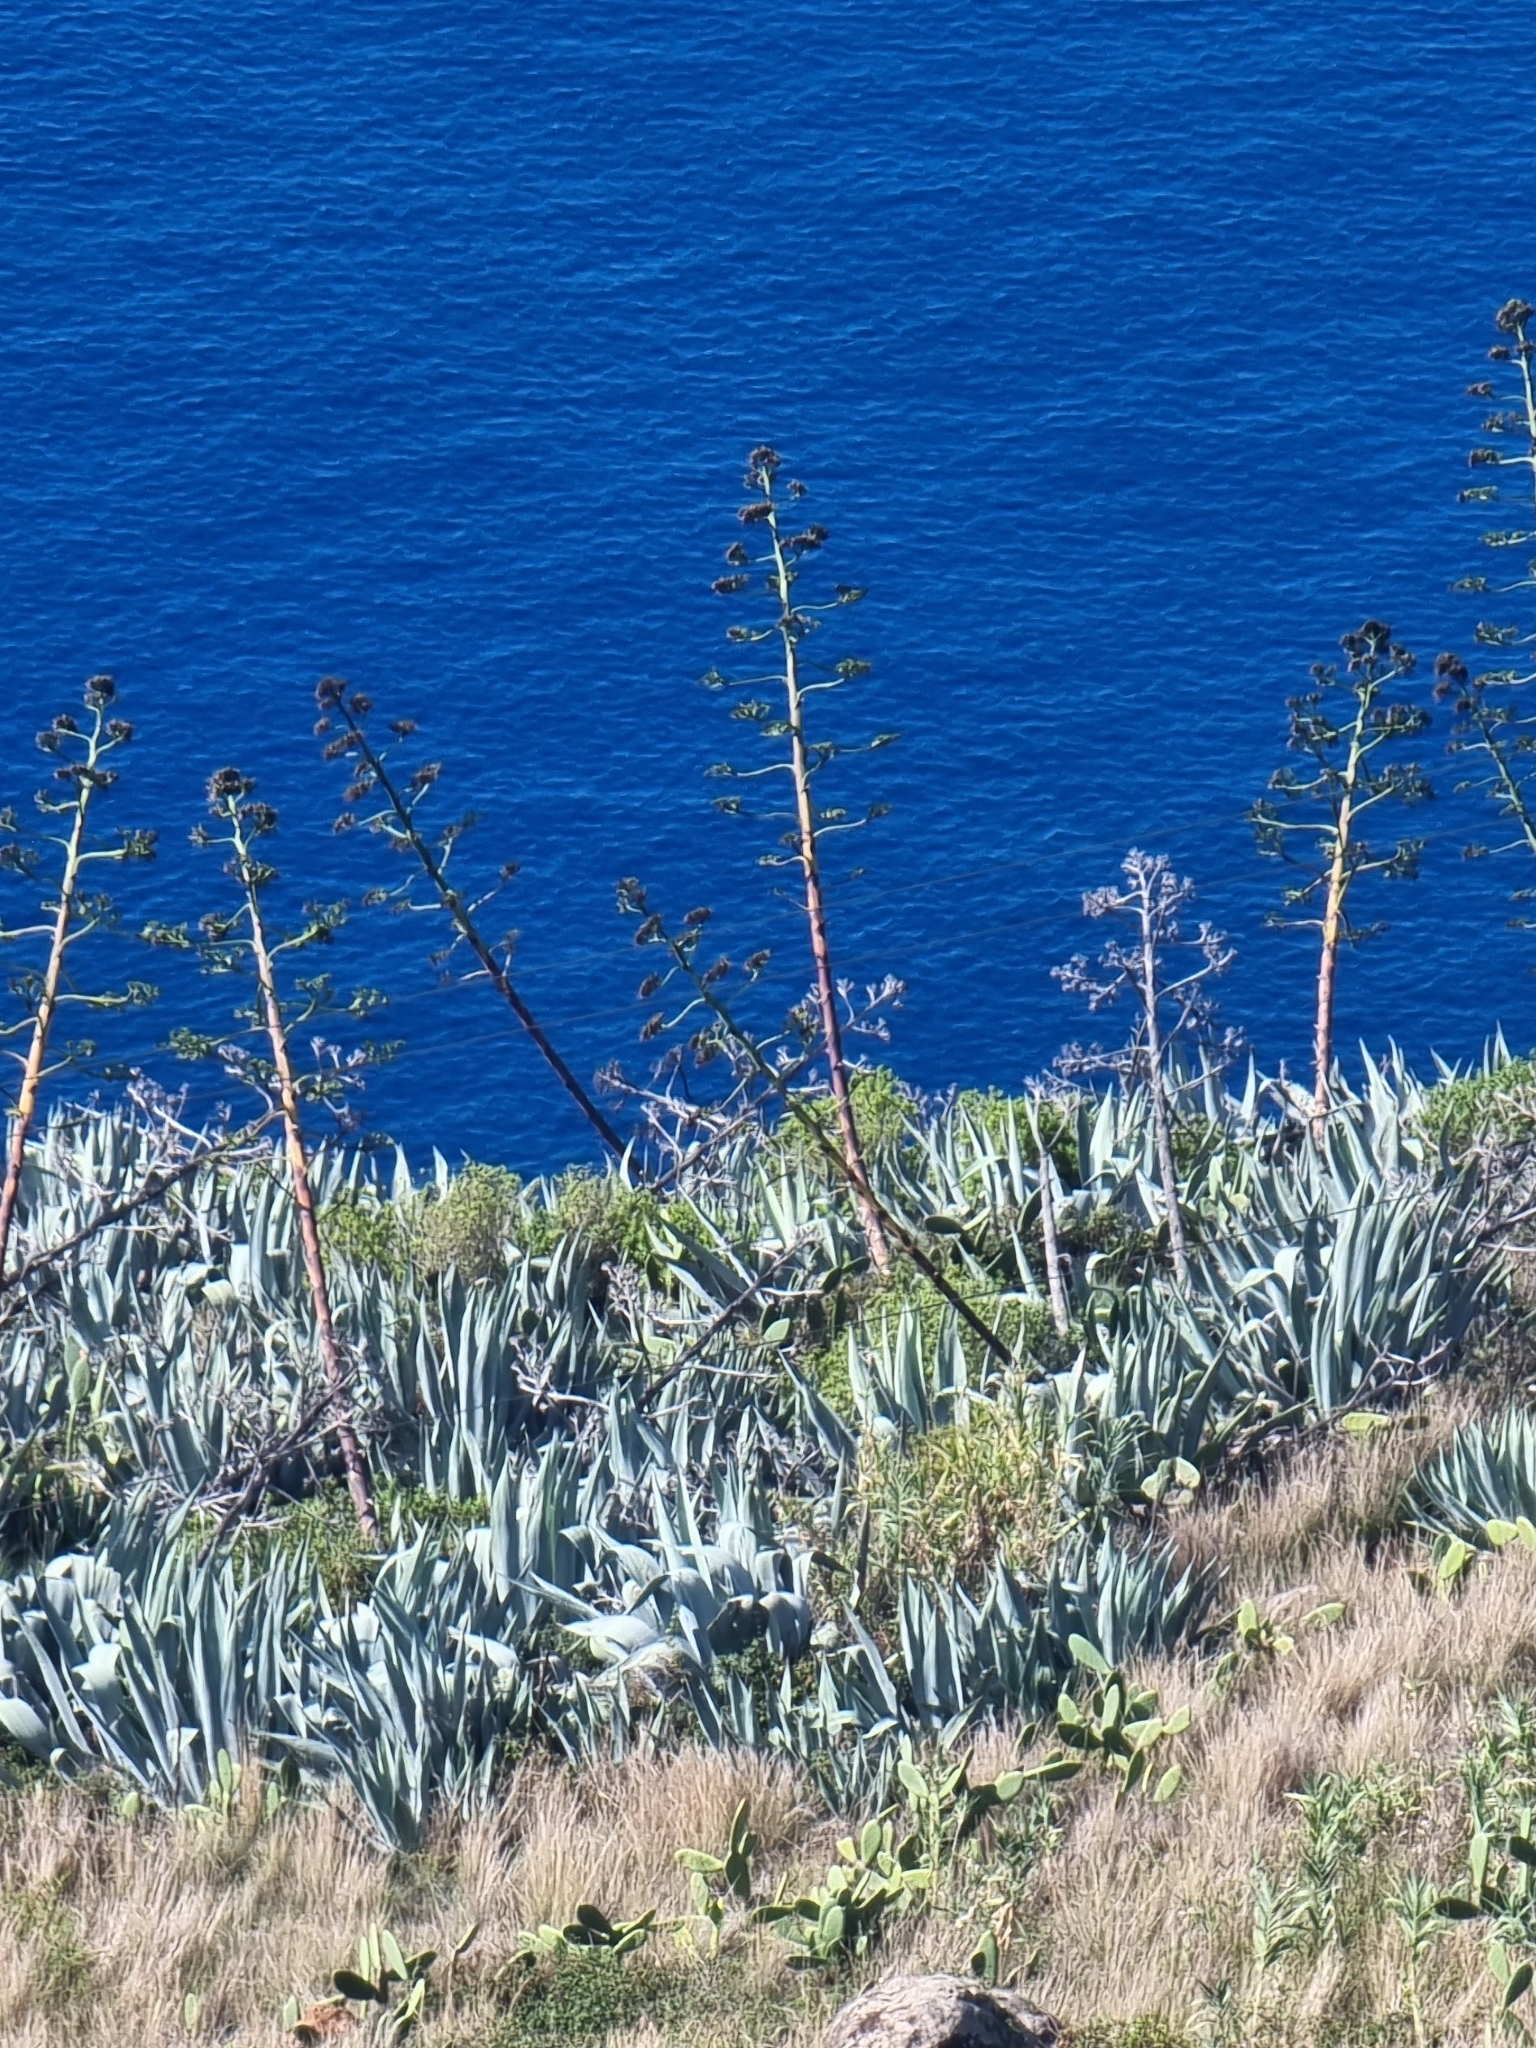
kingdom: Plantae
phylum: Tracheophyta
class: Liliopsida
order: Asparagales
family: Asparagaceae
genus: Agave
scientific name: Agave americana
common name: Centuryplant
